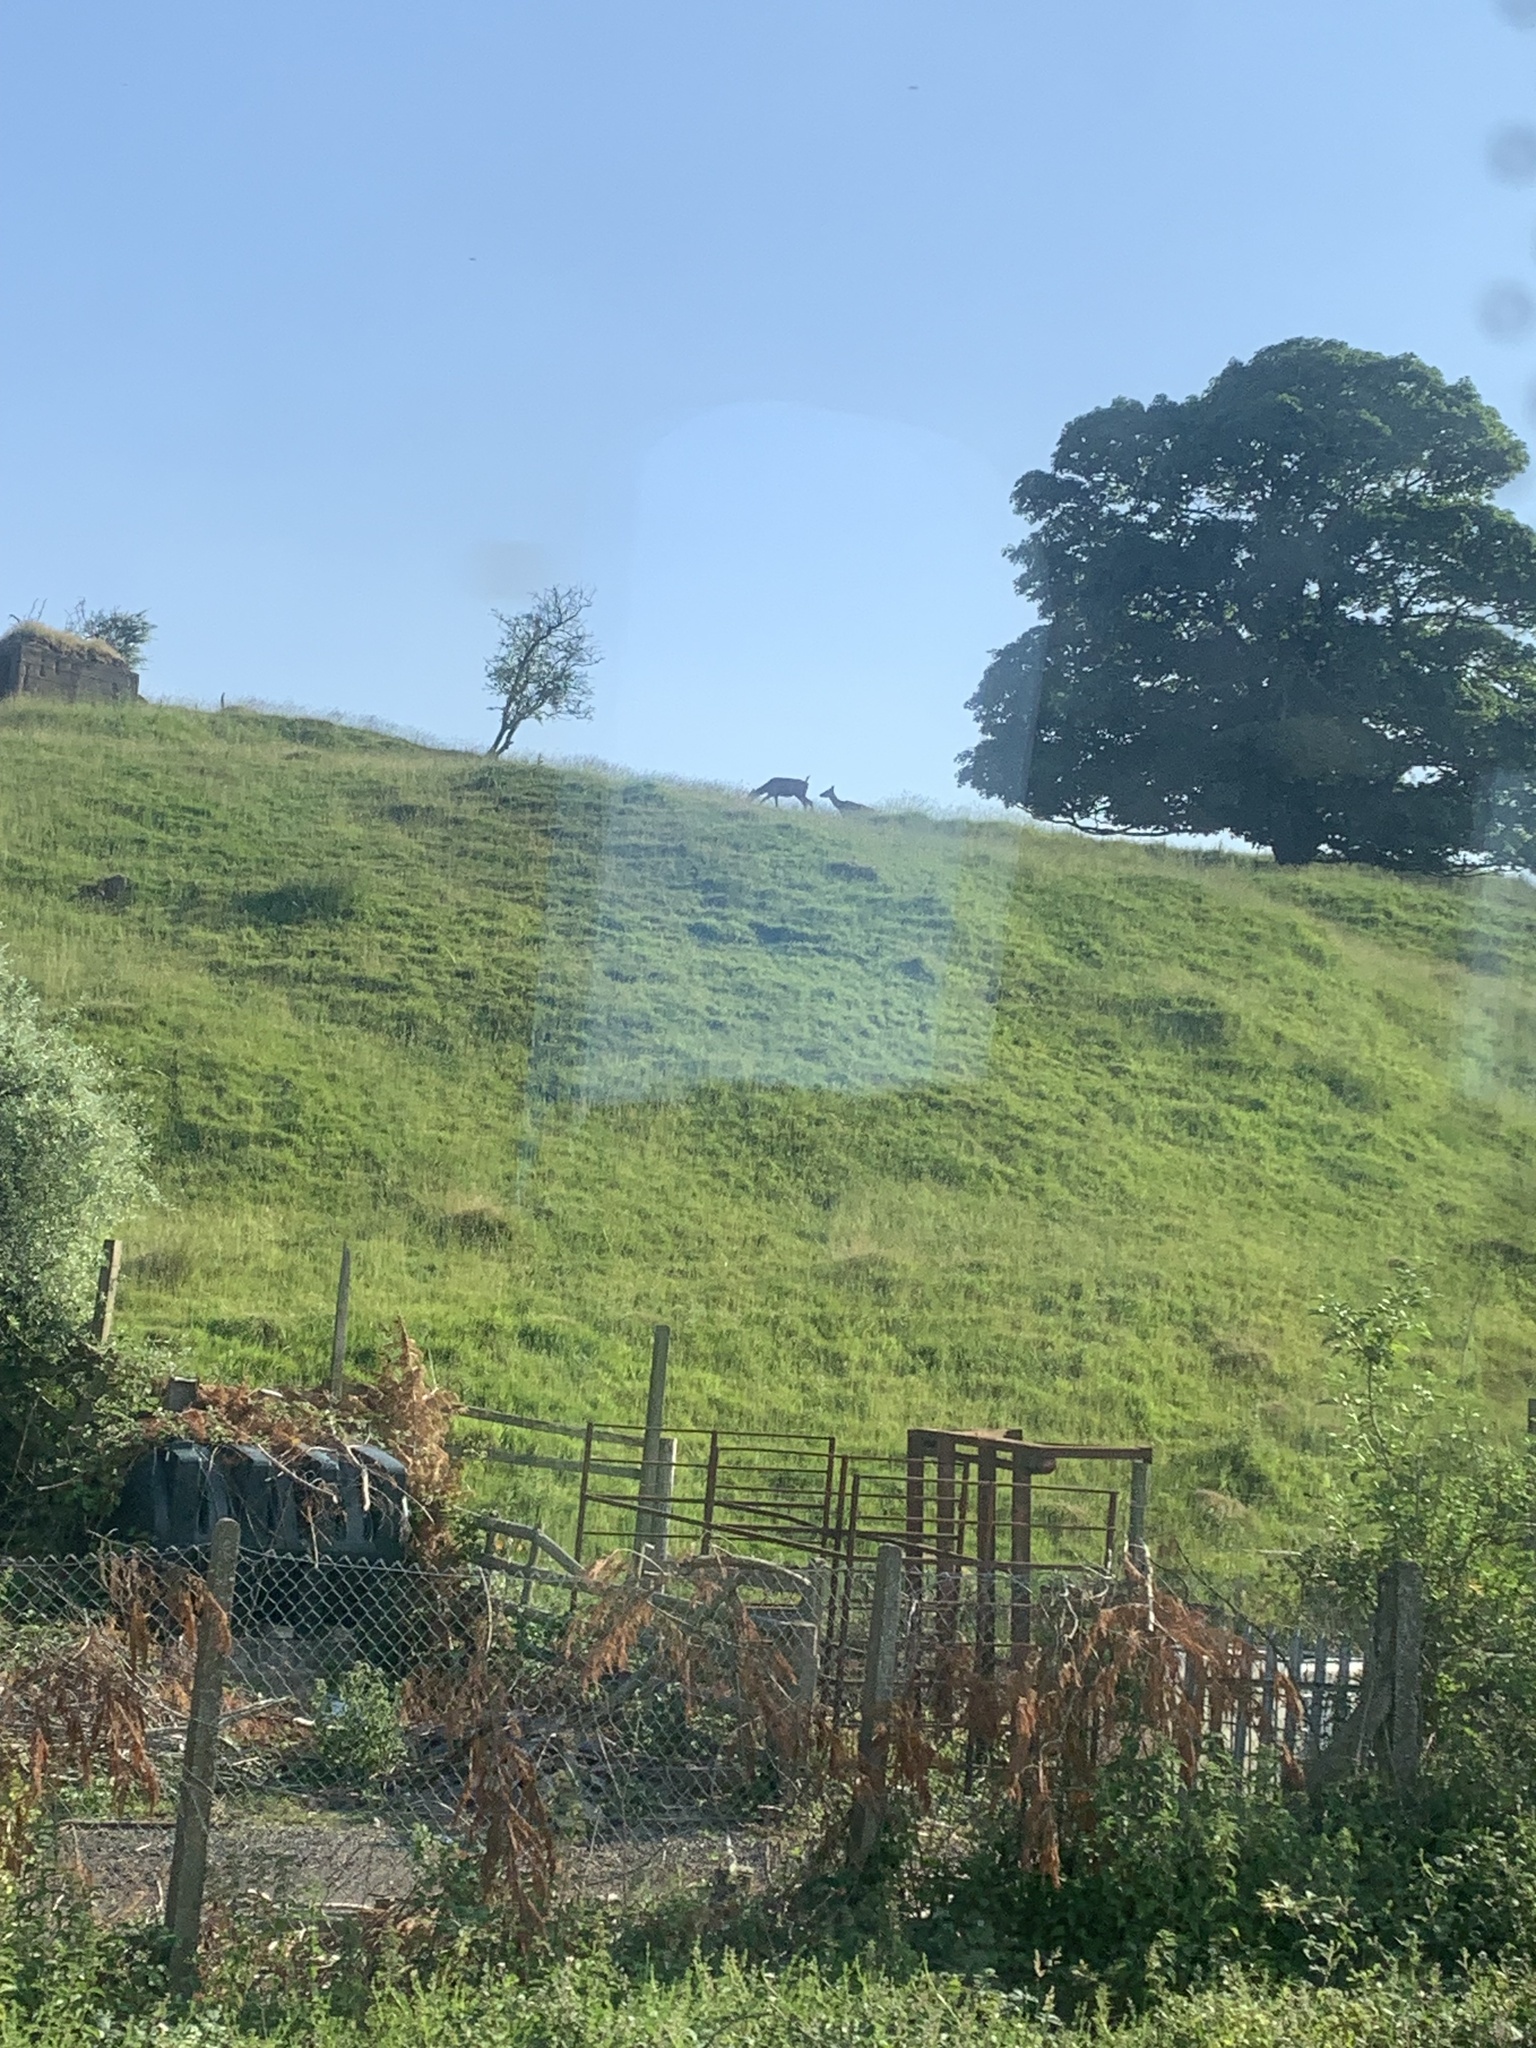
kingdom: Animalia
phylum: Chordata
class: Mammalia
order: Artiodactyla
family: Cervidae
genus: Cervus
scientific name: Cervus elaphus
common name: Red deer
